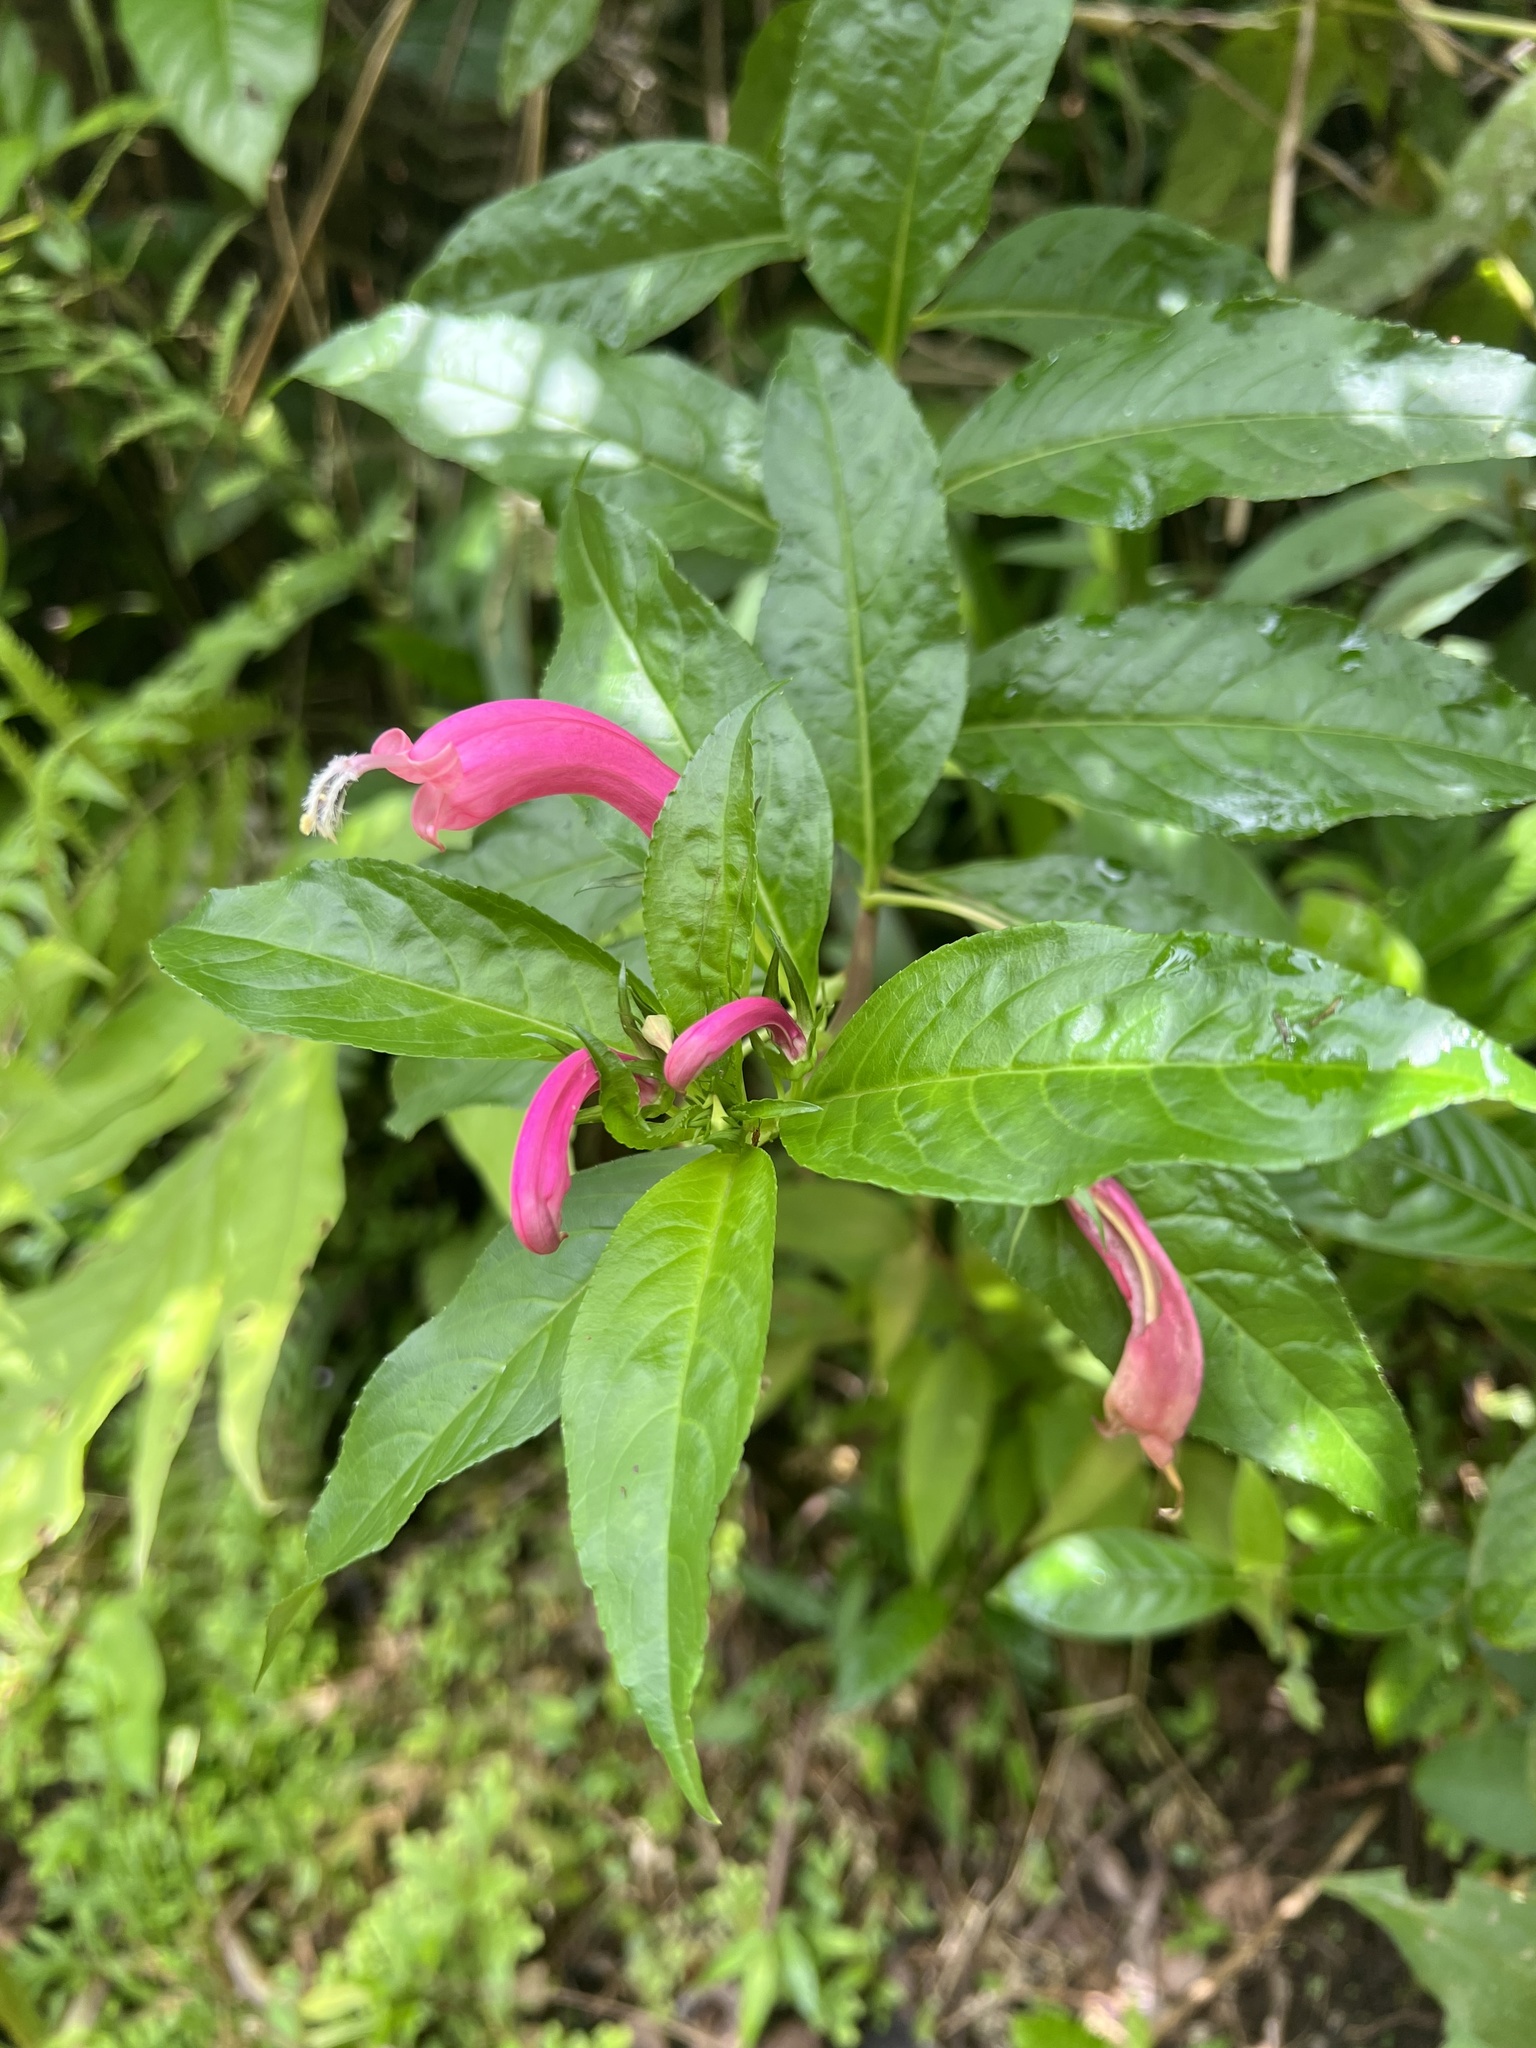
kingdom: Plantae
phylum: Tracheophyta
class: Magnoliopsida
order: Asterales
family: Campanulaceae
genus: Centropogon
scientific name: Centropogon cornutus
